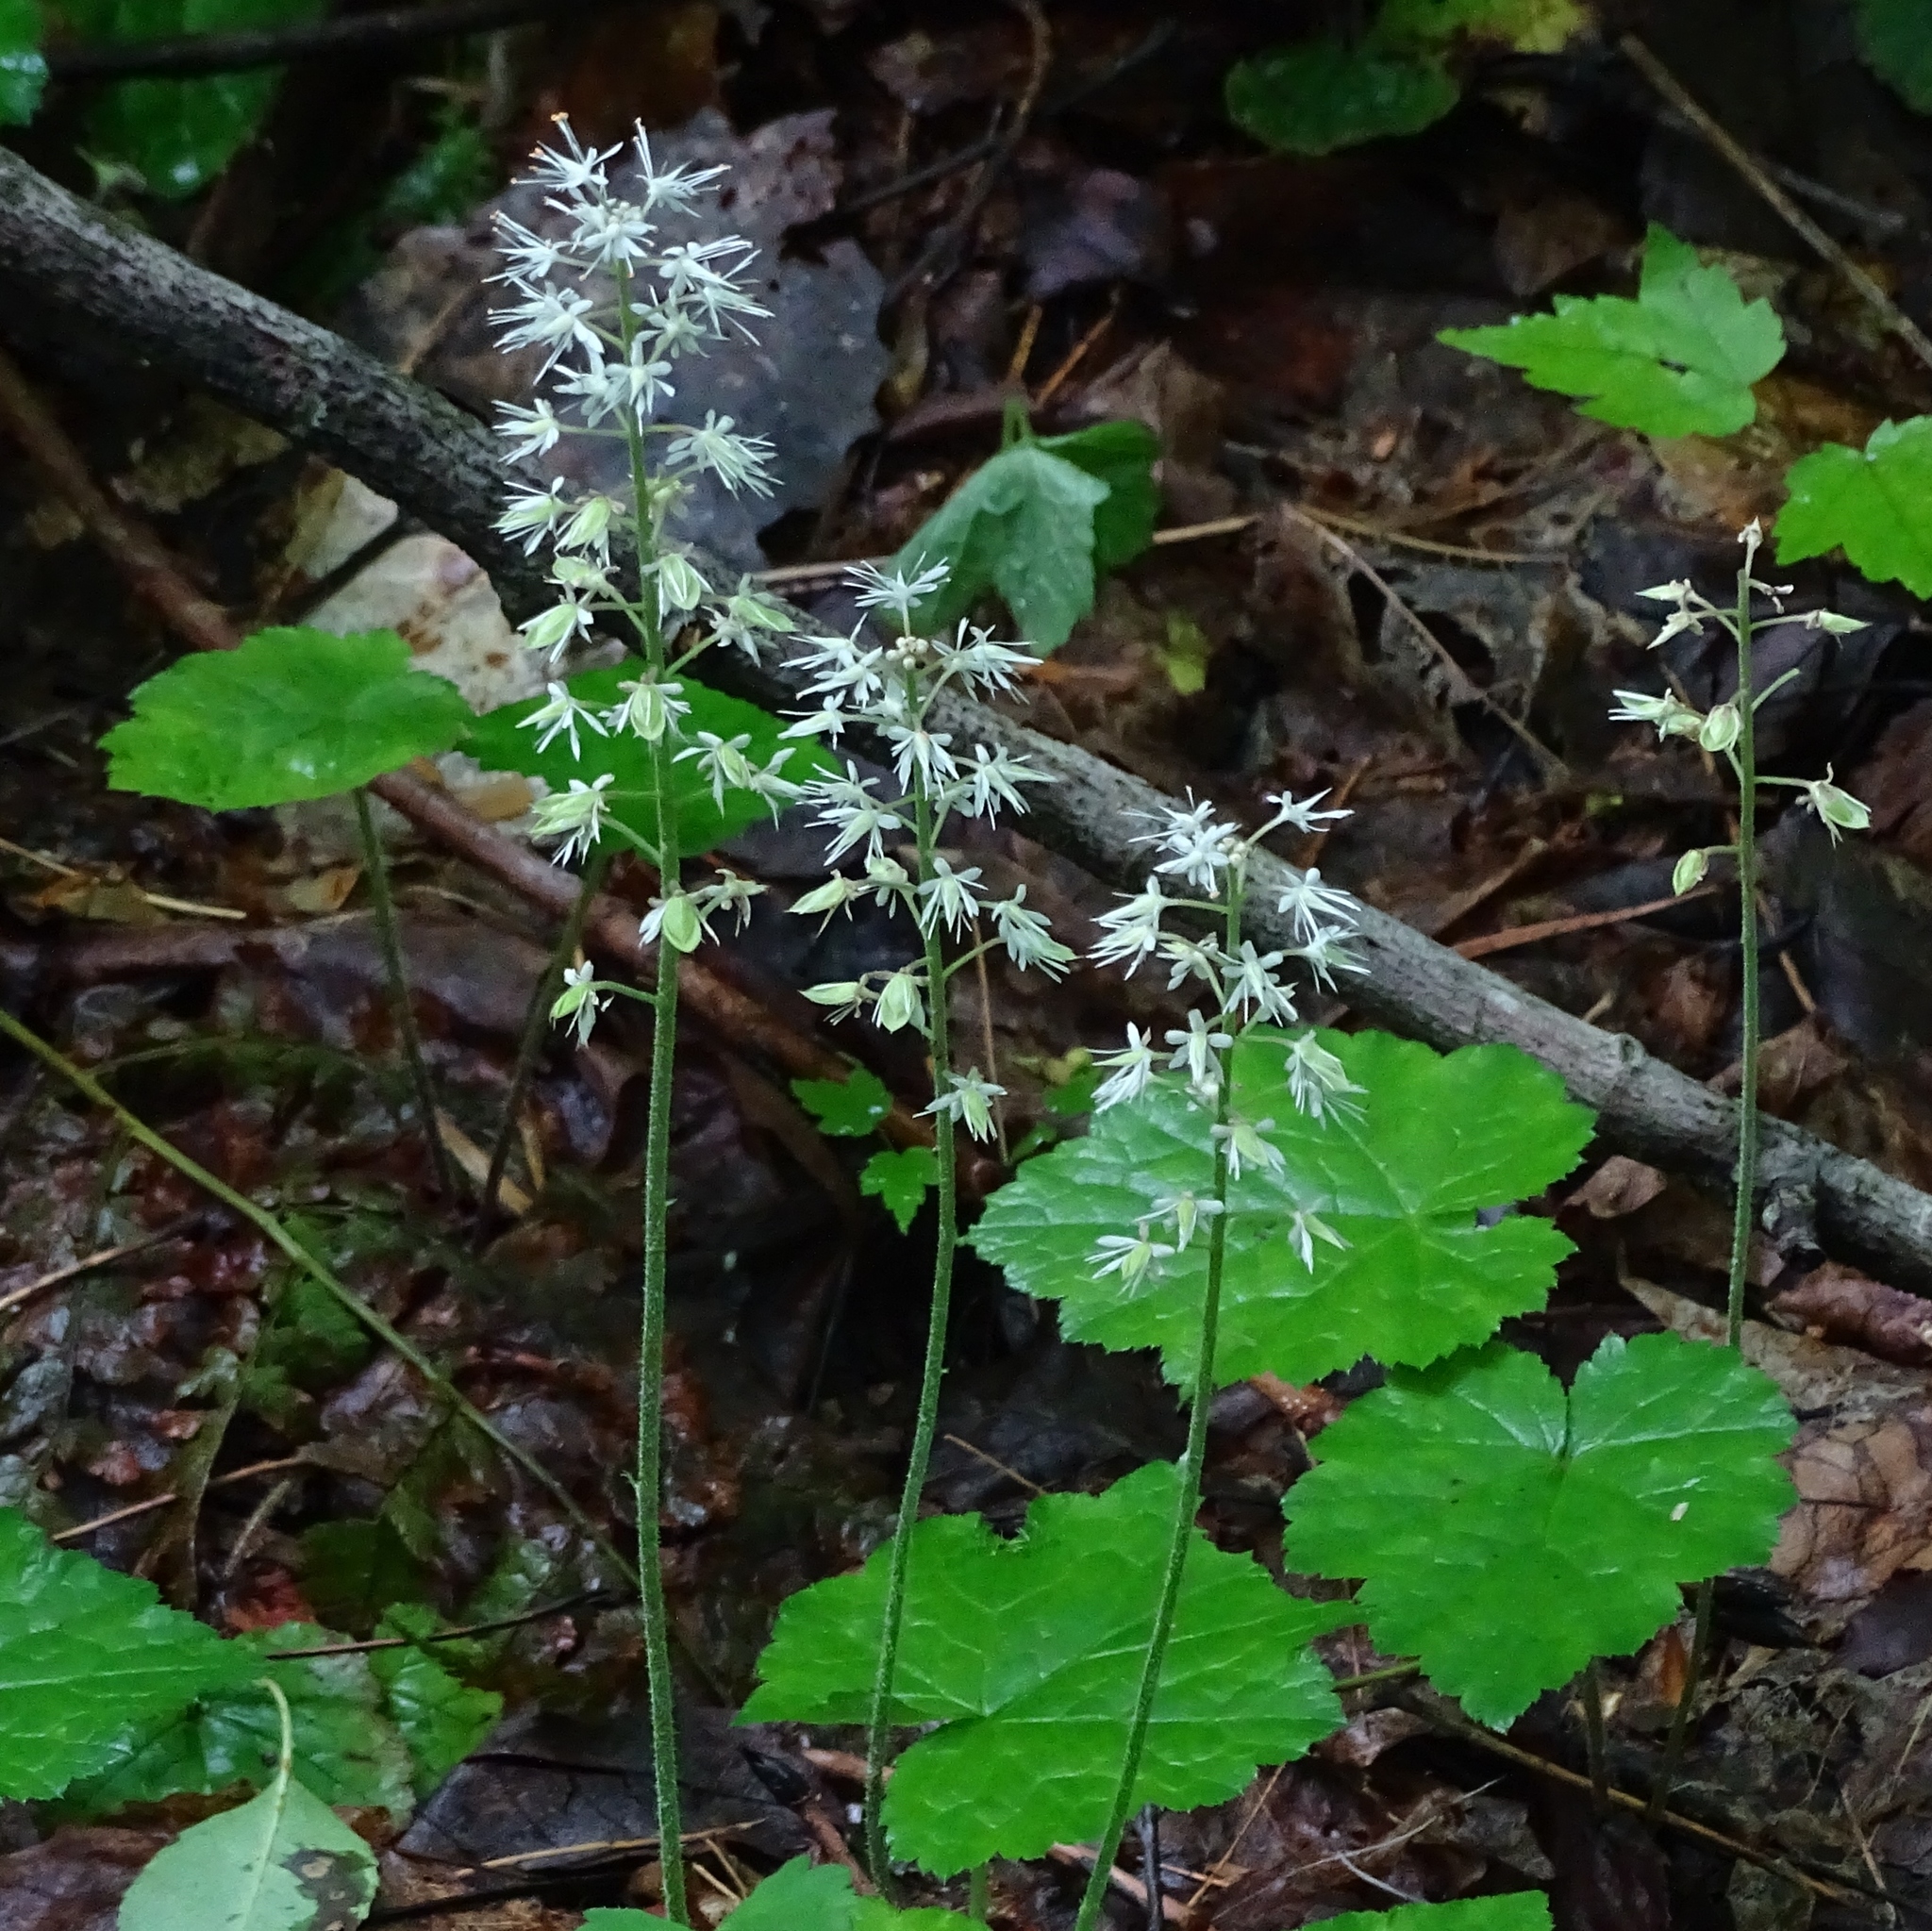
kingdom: Plantae
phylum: Tracheophyta
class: Magnoliopsida
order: Saxifragales
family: Saxifragaceae
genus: Tiarella
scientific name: Tiarella stolonifera
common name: Stoloniferous foamflower
